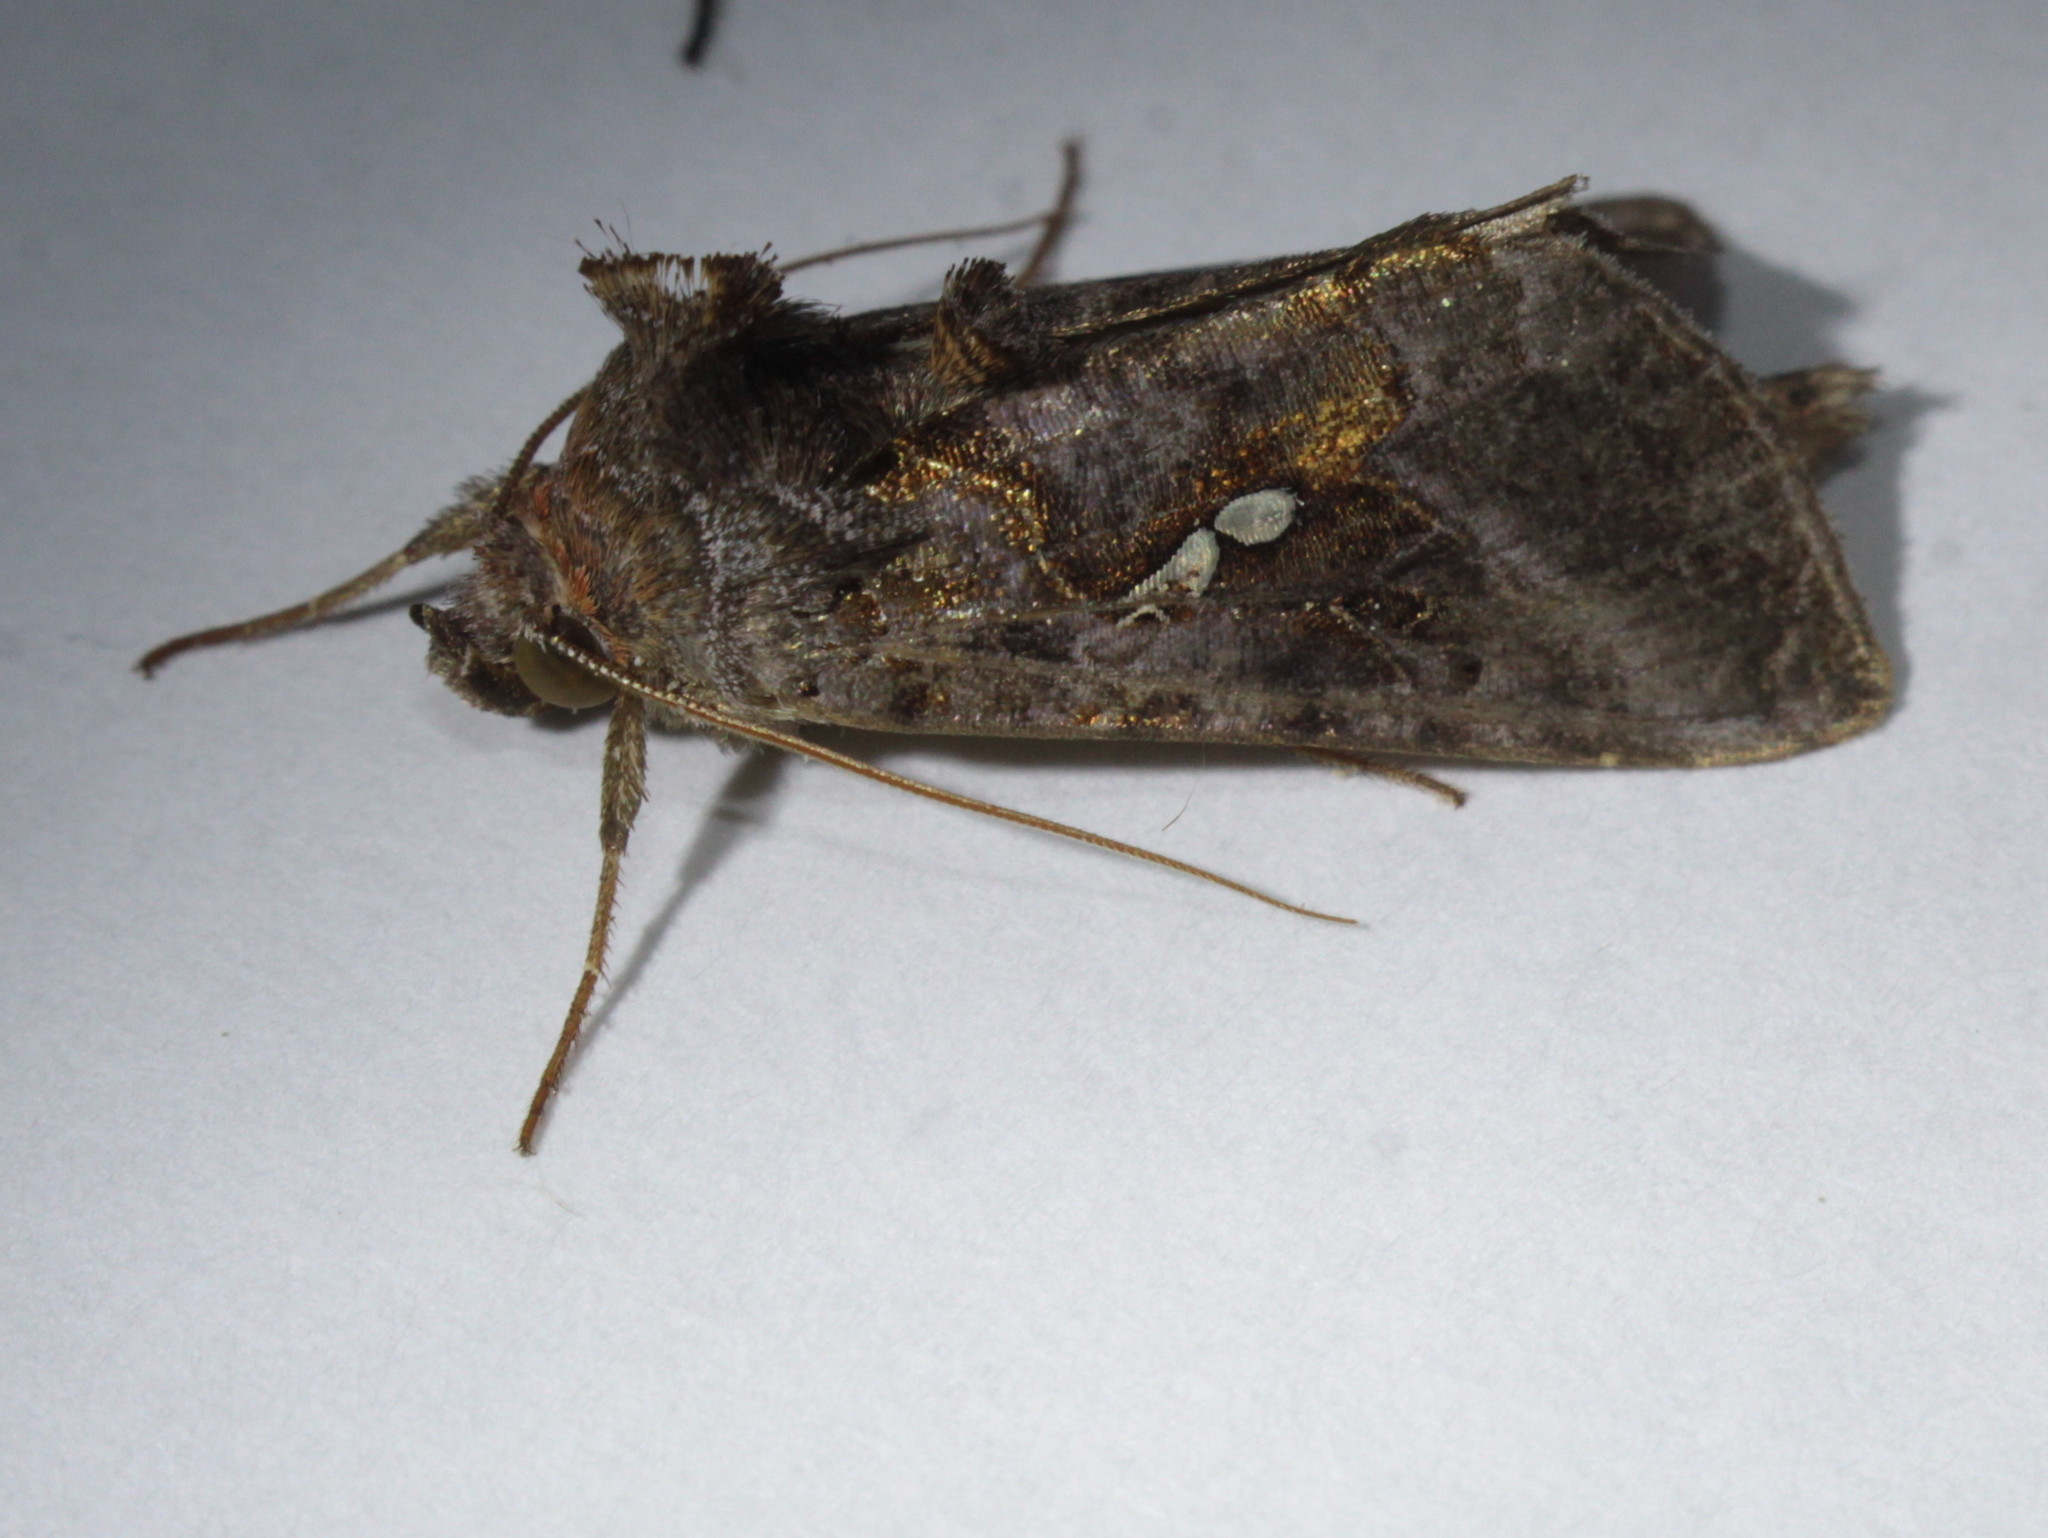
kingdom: Animalia
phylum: Arthropoda
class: Insecta
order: Lepidoptera
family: Noctuidae
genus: Autographa
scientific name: Autographa precationis
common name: Common looper moth
